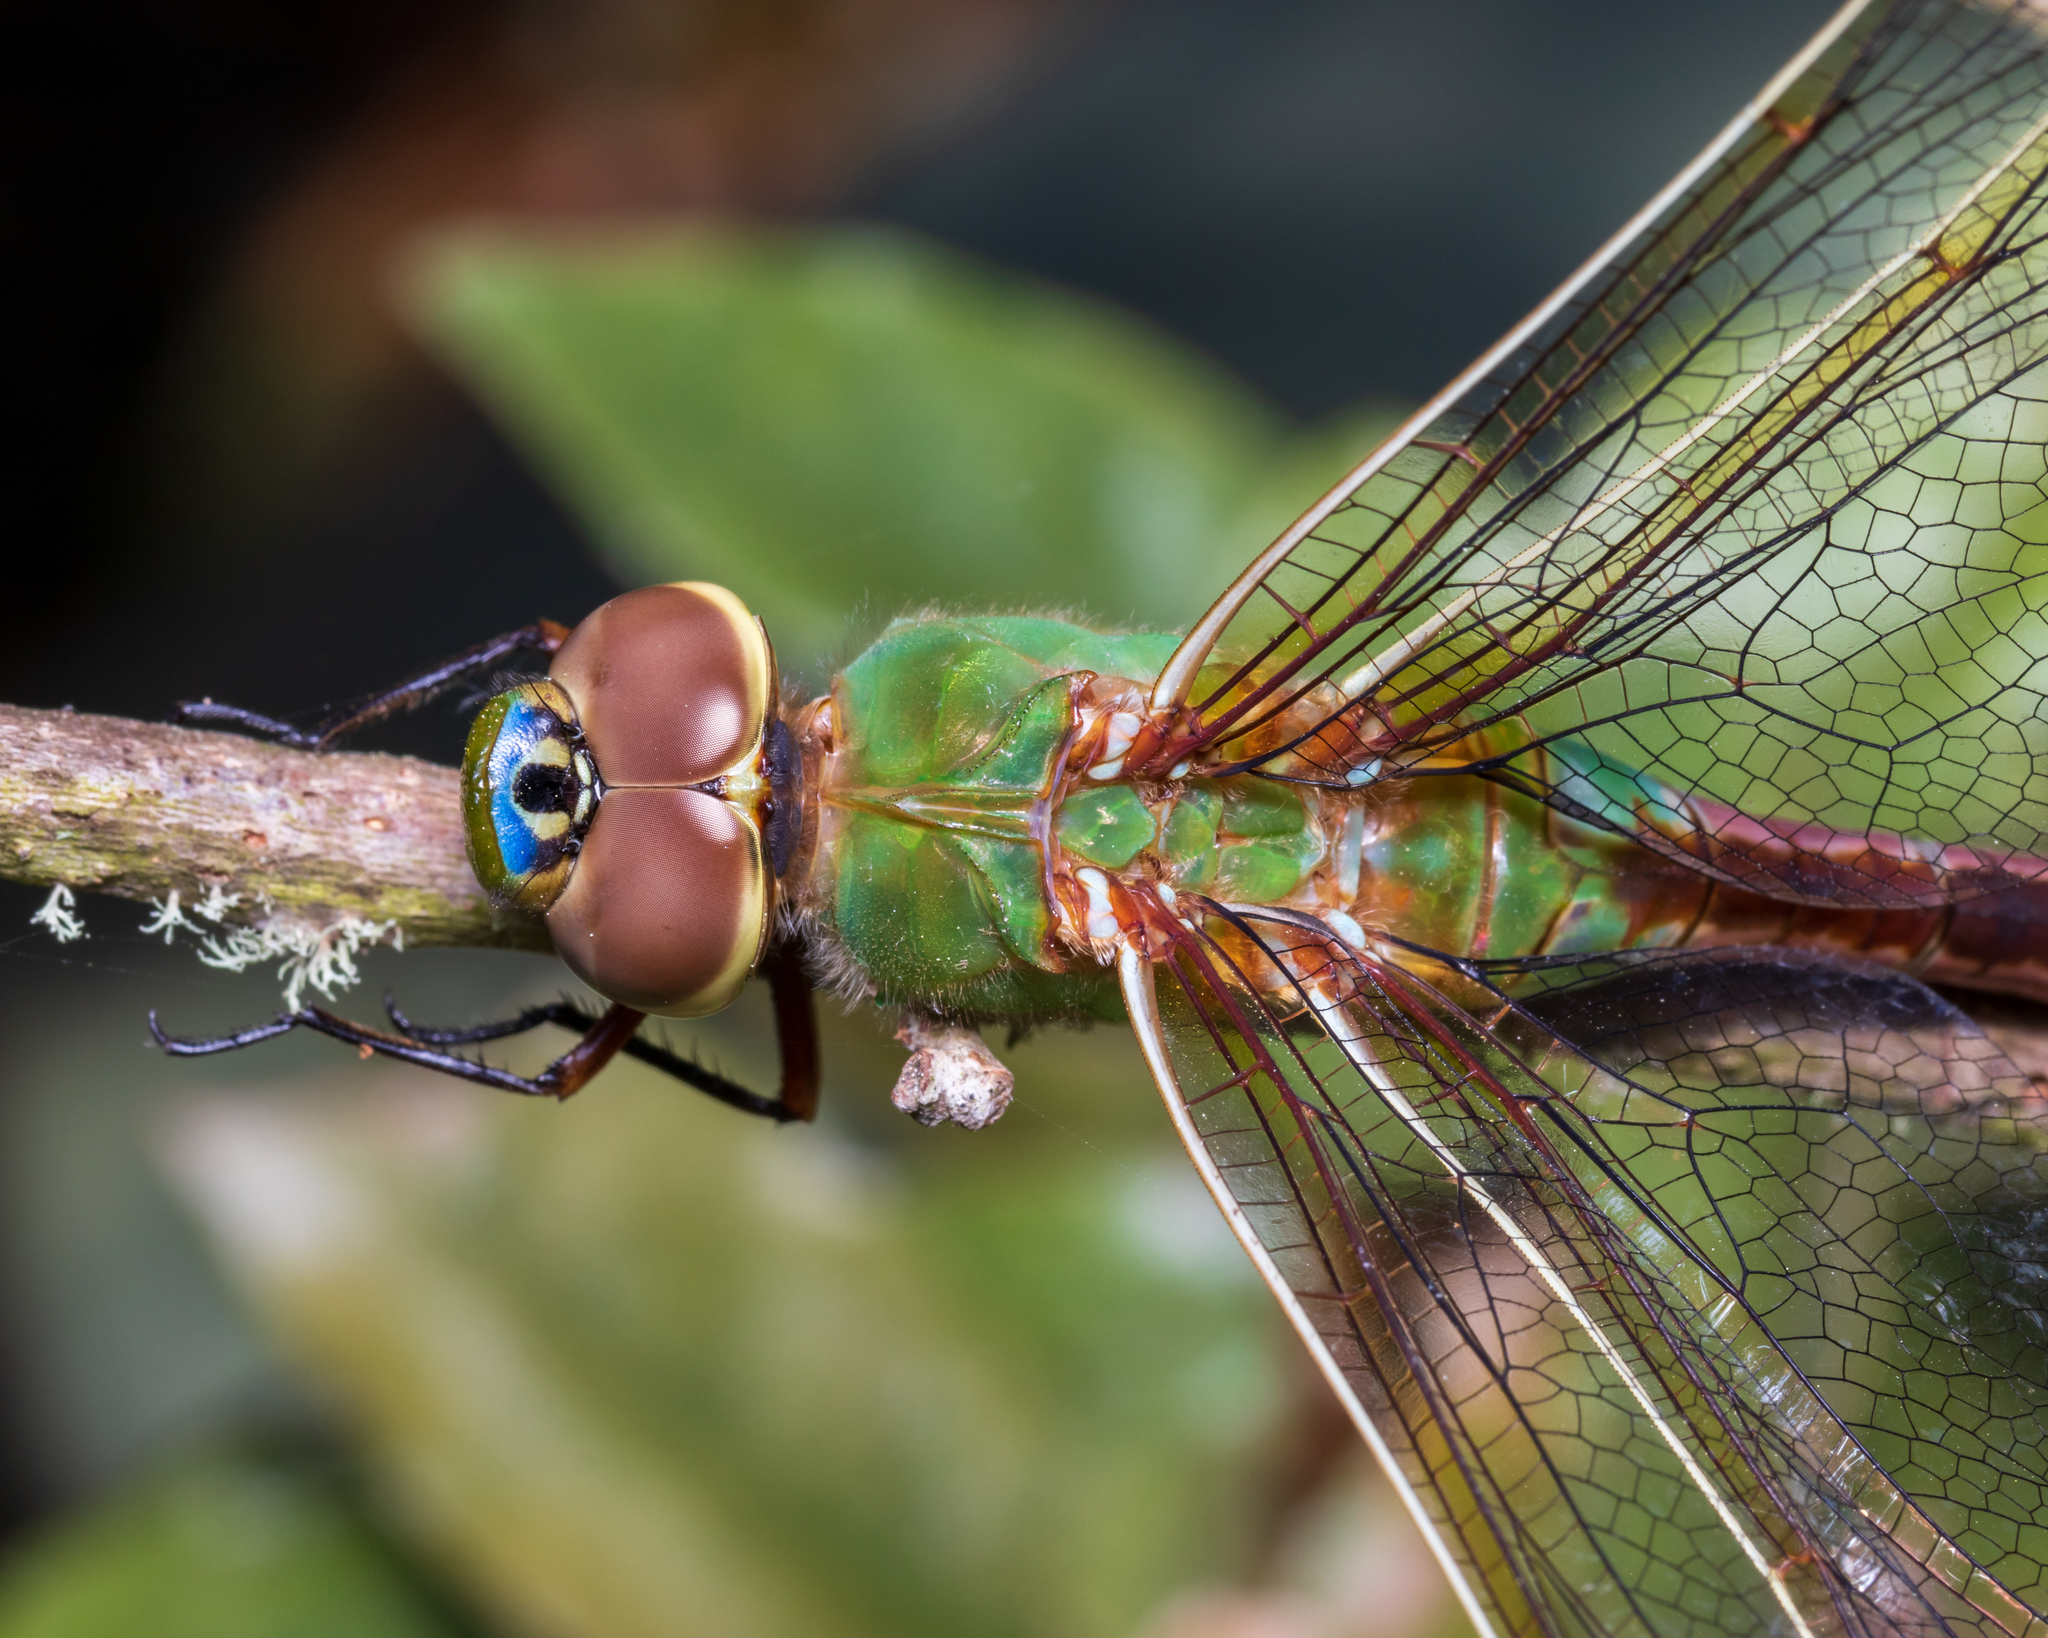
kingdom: Animalia
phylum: Arthropoda
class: Insecta
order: Odonata
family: Aeshnidae
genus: Anax
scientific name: Anax junius
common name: Common green darner
